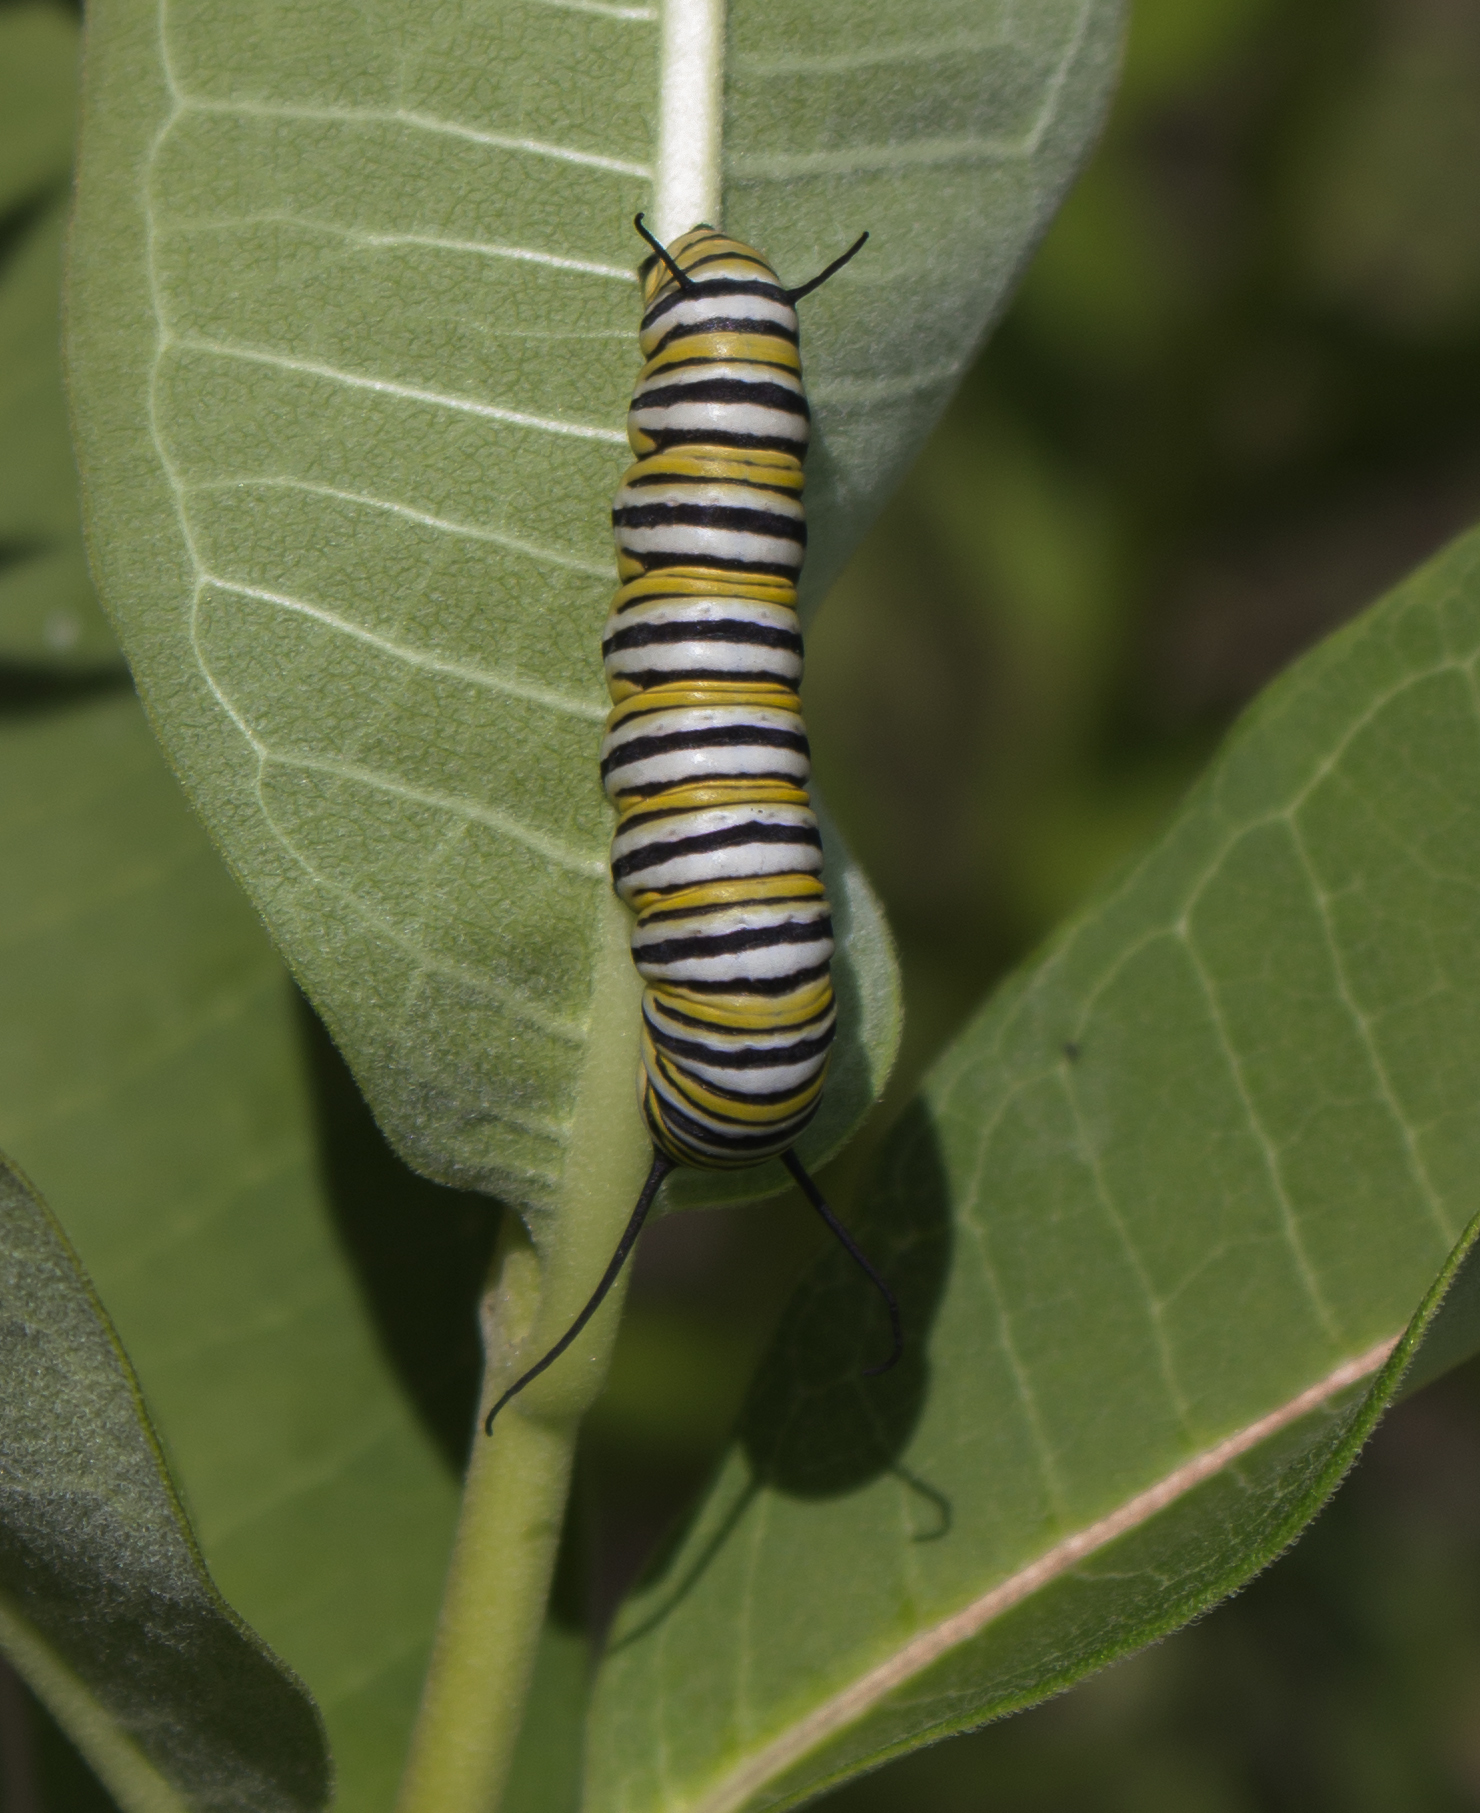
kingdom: Animalia
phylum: Arthropoda
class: Insecta
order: Lepidoptera
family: Nymphalidae
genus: Danaus
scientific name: Danaus plexippus
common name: Monarch
